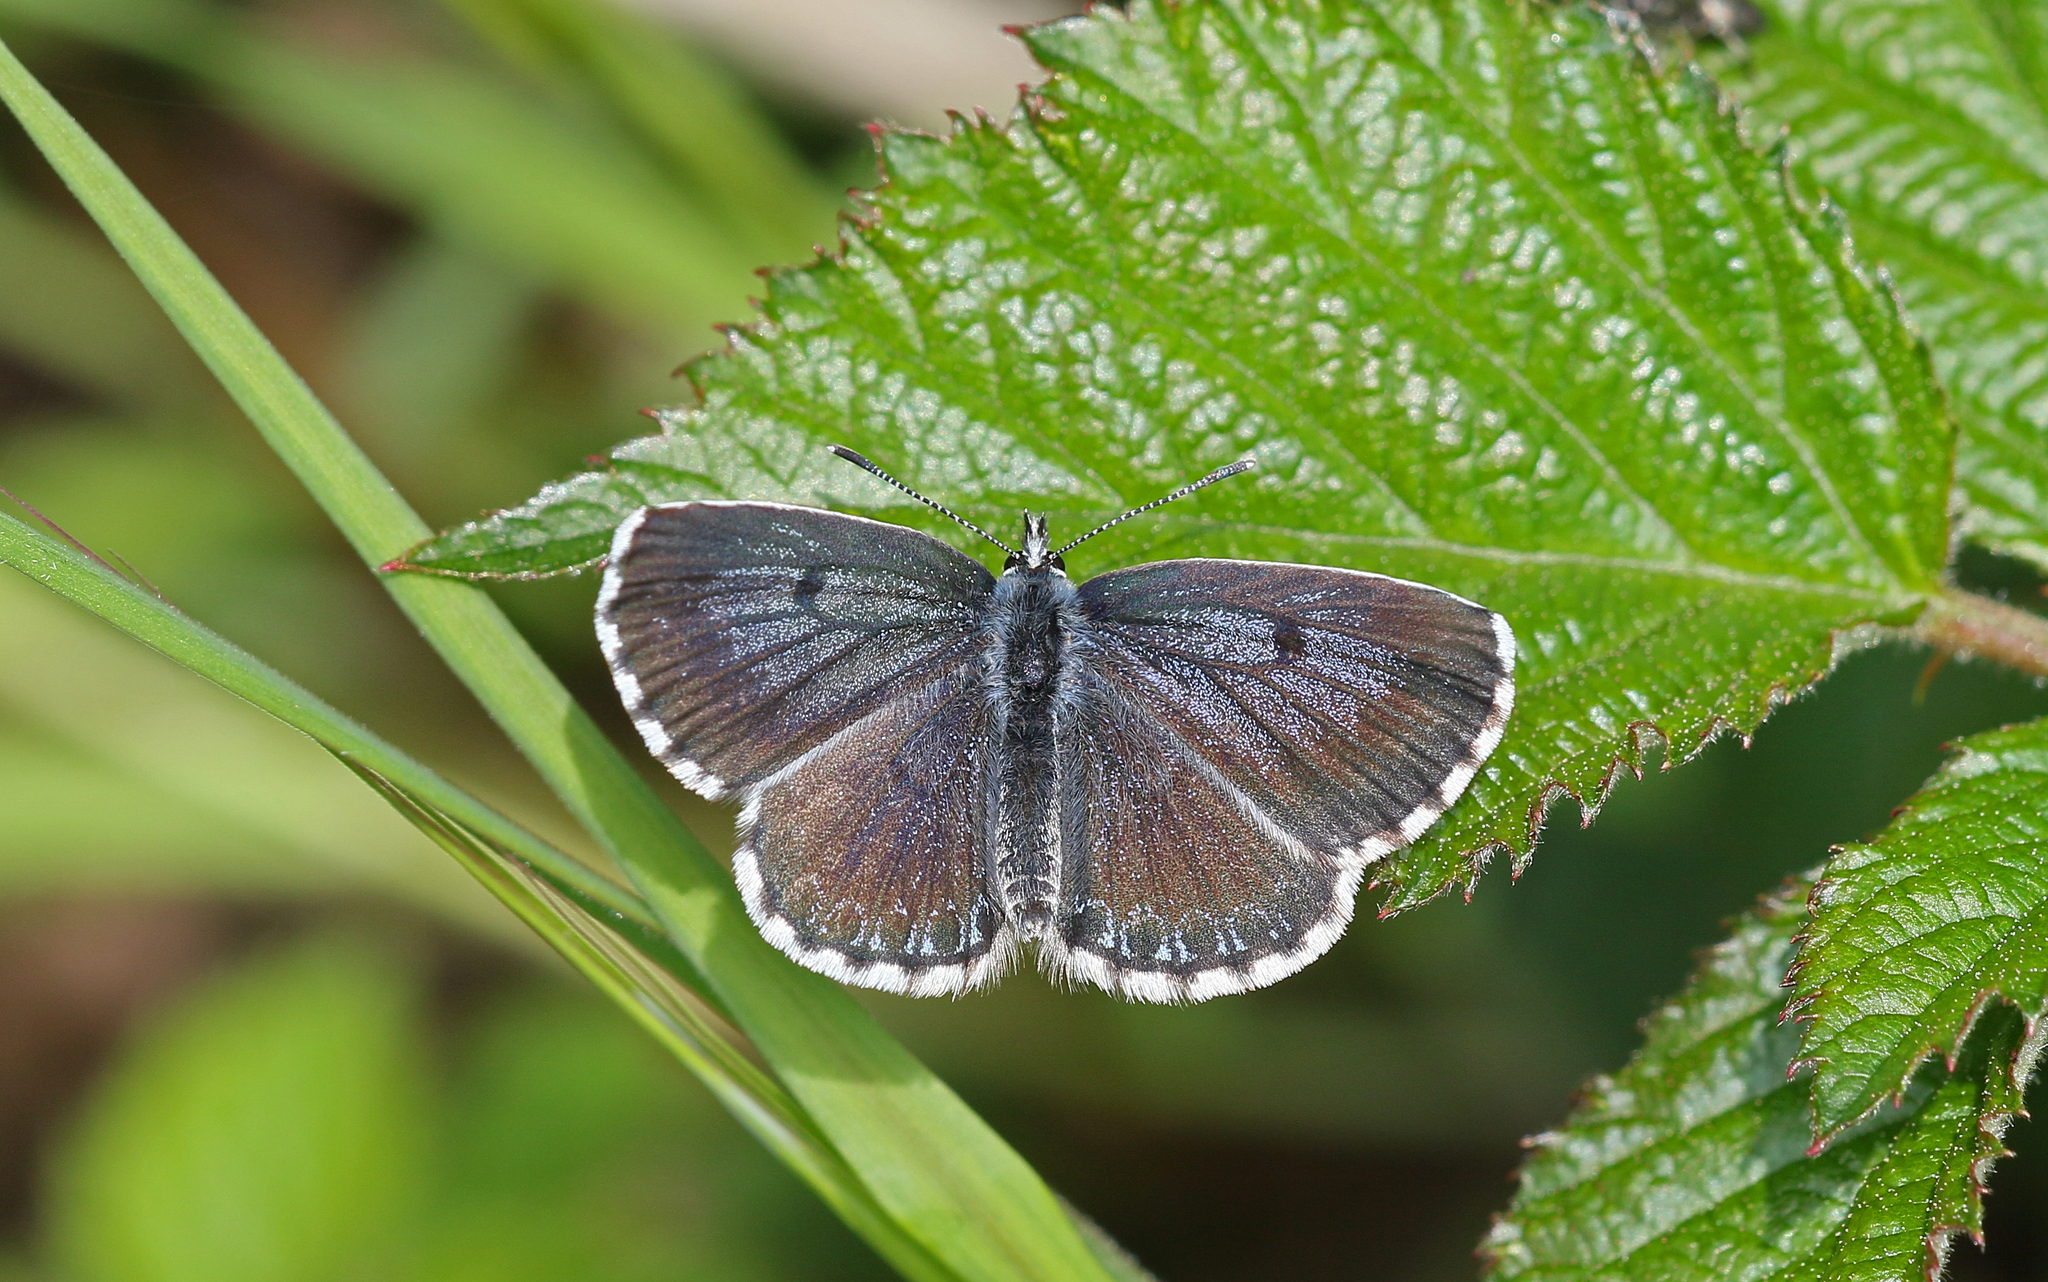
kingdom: Animalia
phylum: Arthropoda
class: Insecta
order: Lepidoptera
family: Lycaenidae
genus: Scolitantides
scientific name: Scolitantides orion
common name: Chequered blue
